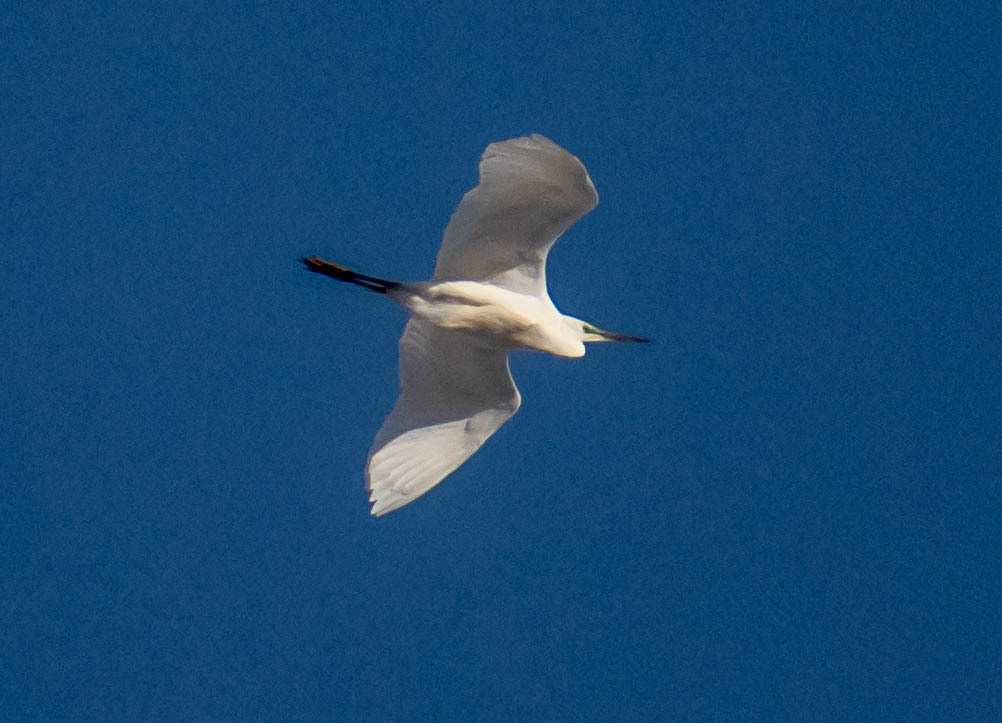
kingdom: Animalia
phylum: Chordata
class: Aves
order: Pelecaniformes
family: Ardeidae
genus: Ardea
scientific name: Ardea alba
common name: Great egret
